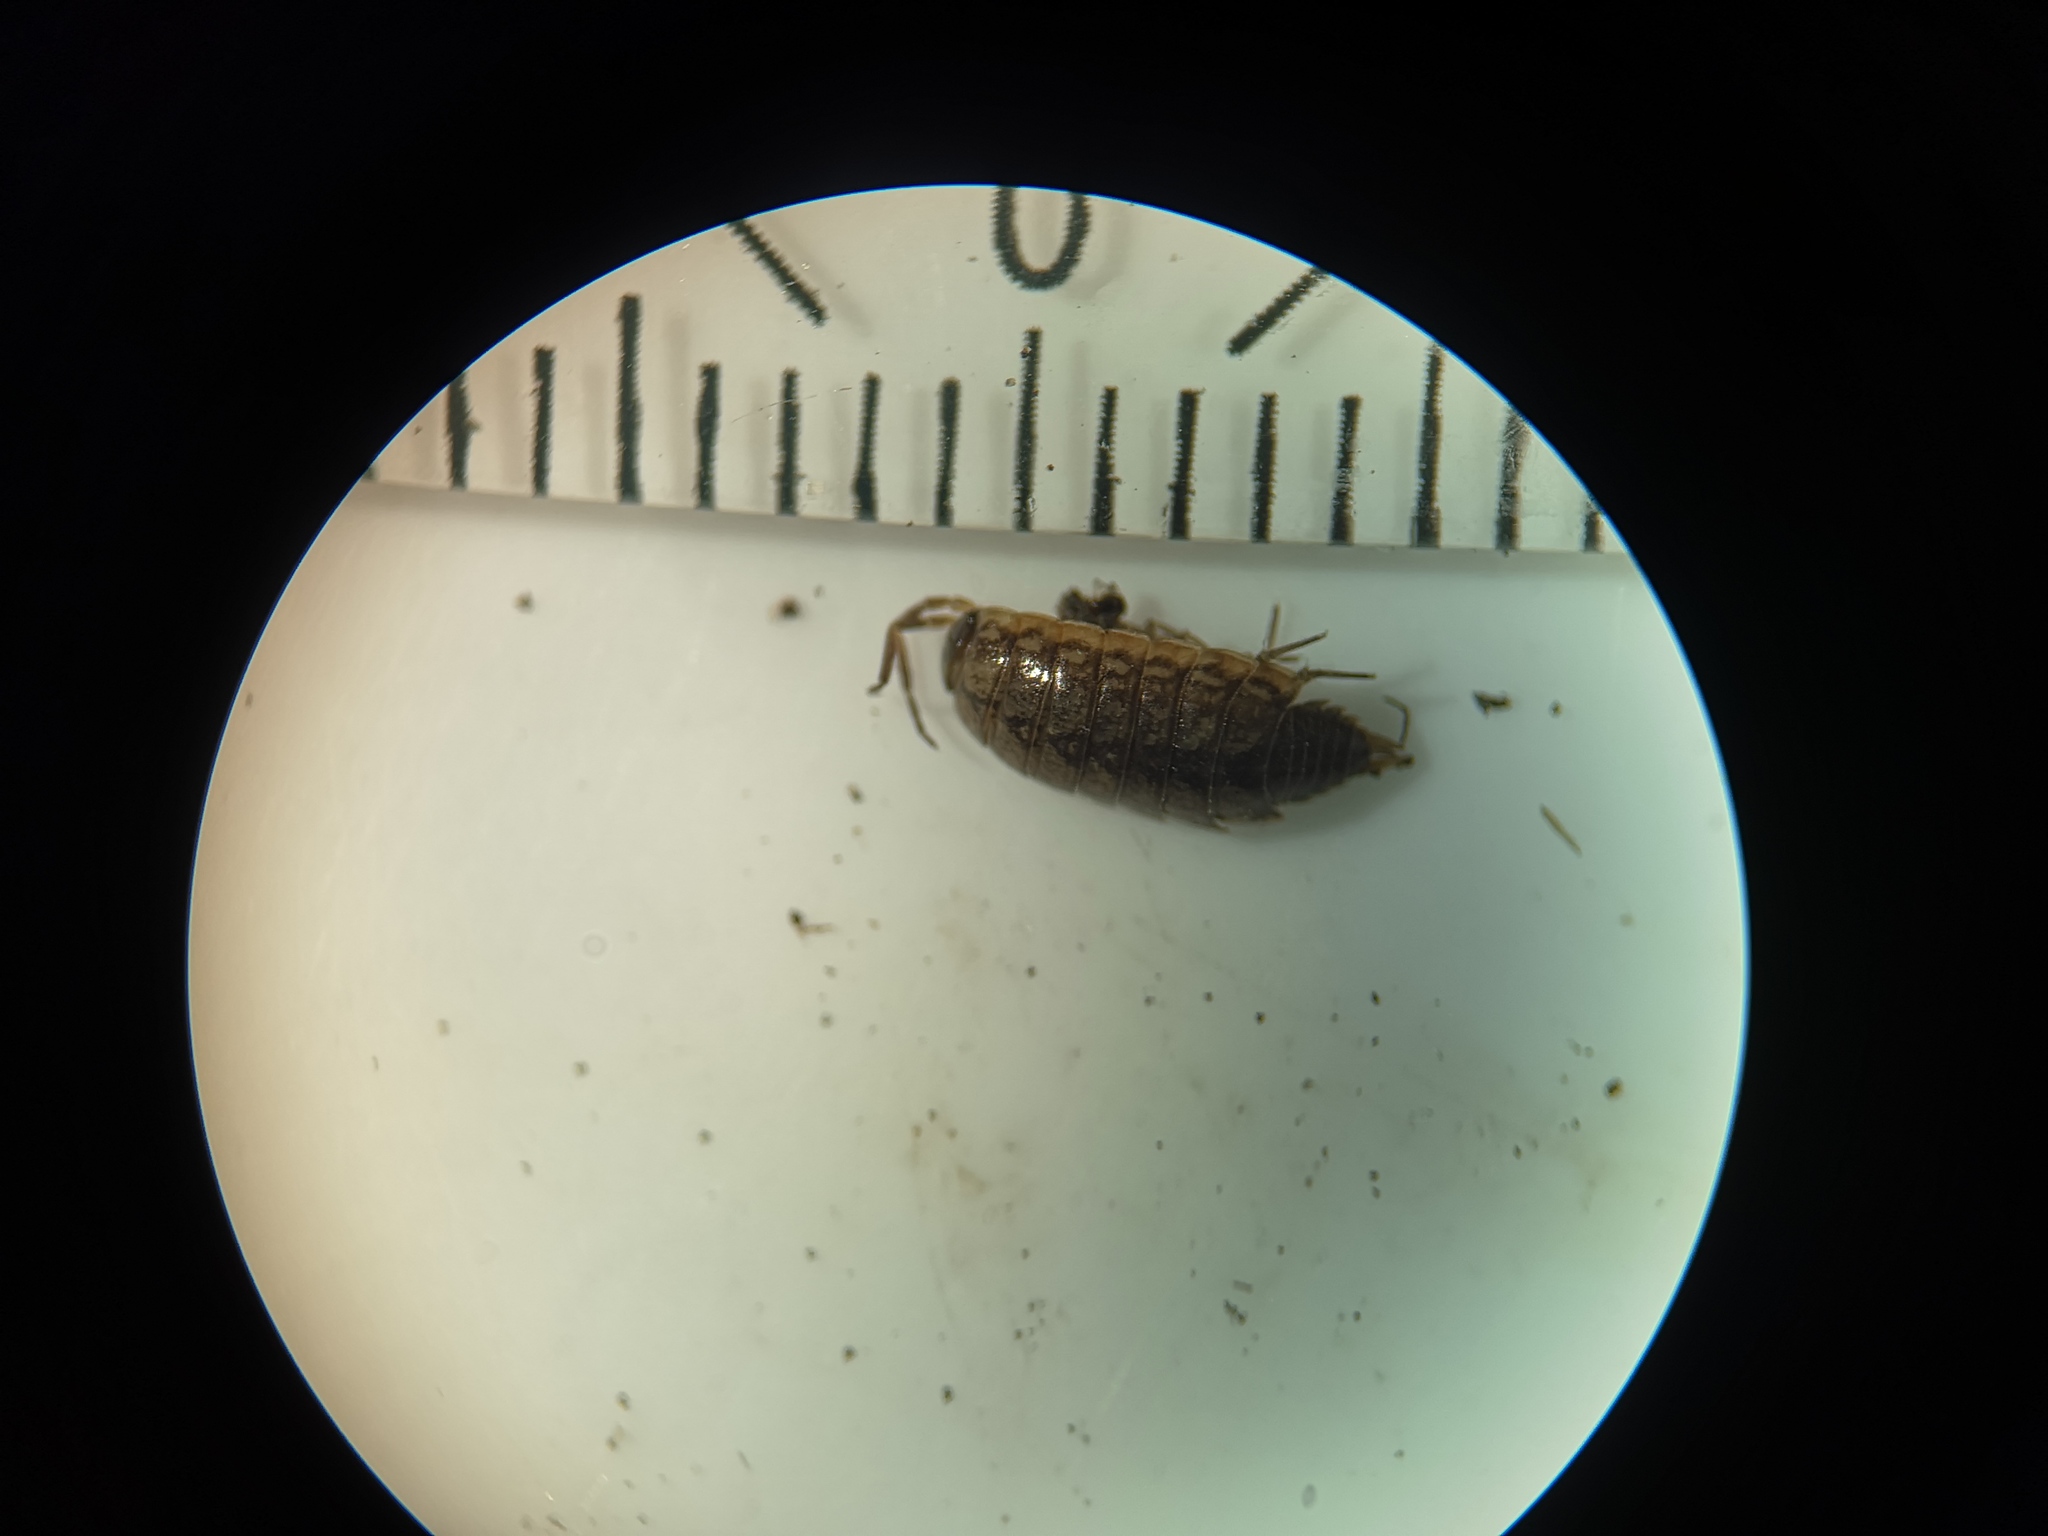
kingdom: Animalia
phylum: Arthropoda
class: Malacostraca
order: Isopoda
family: Philosciidae
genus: Philoscia
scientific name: Philoscia muscorum
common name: Common striped woodlouse
